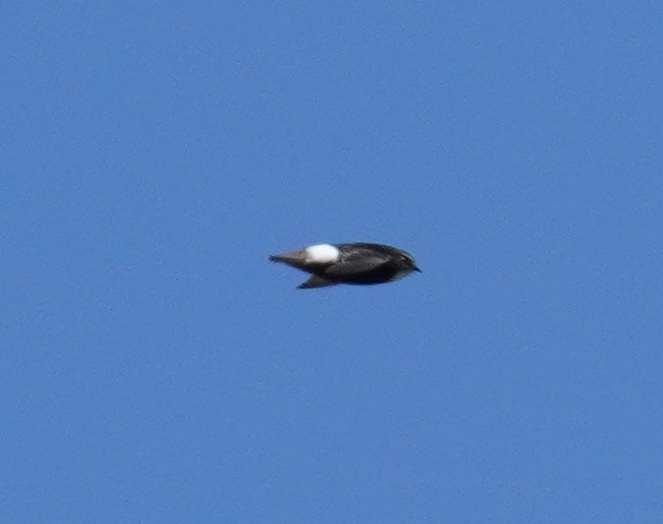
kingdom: Animalia
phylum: Chordata
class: Aves
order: Apodiformes
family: Apodidae
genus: Apus
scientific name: Apus affinis
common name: Little swift
